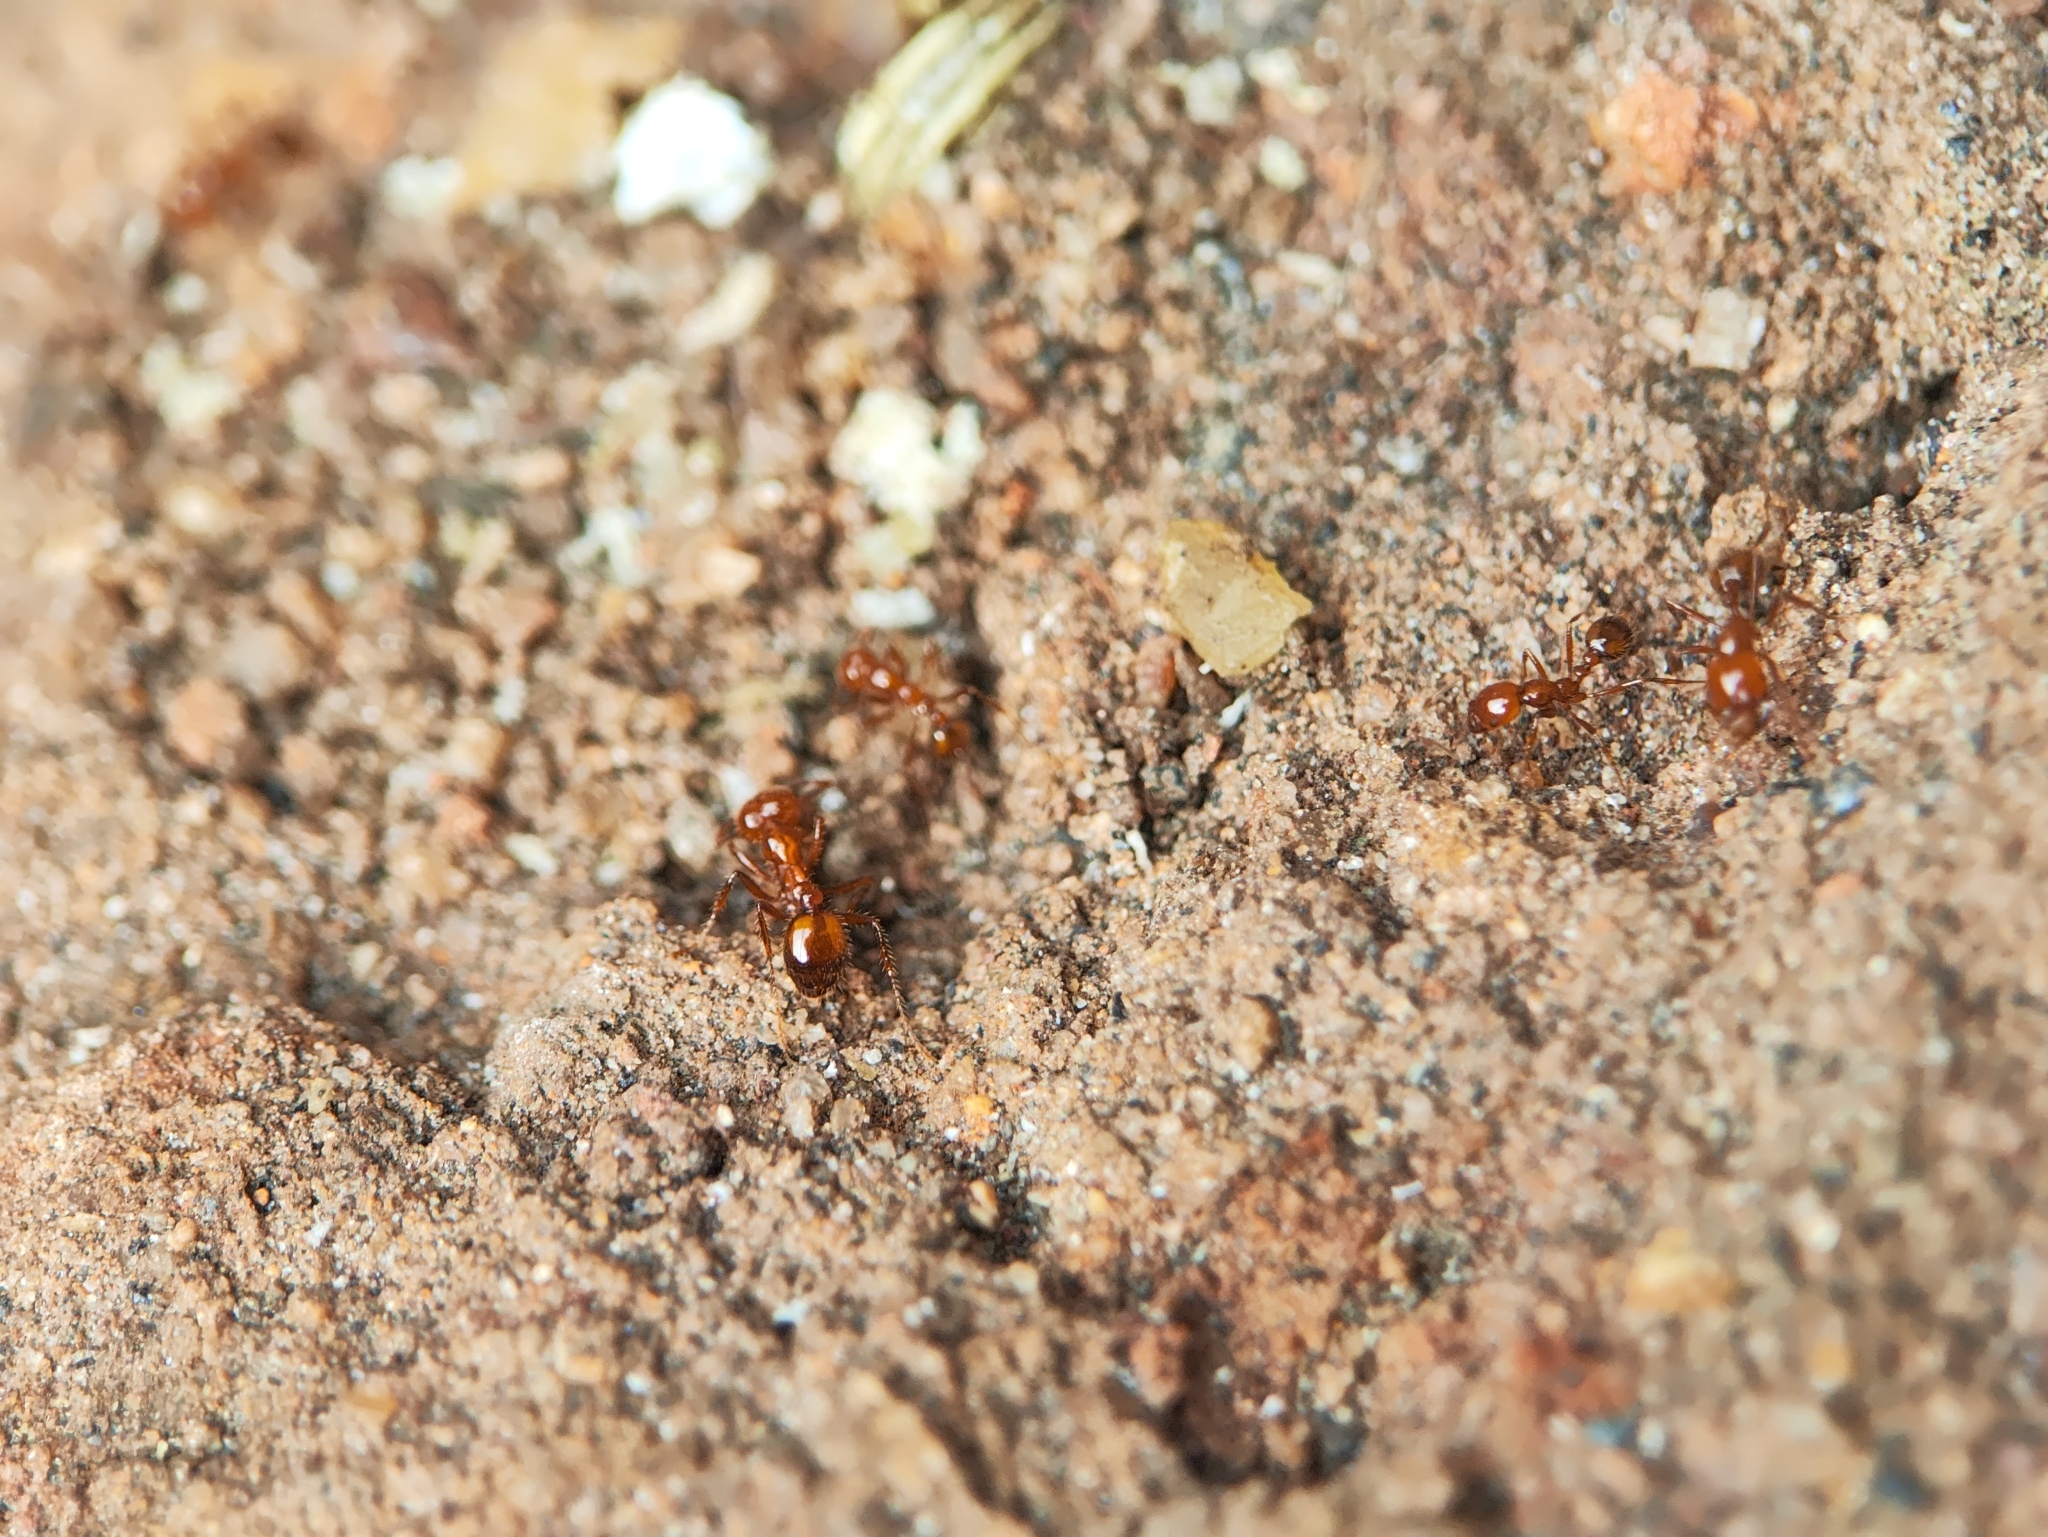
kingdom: Animalia
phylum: Arthropoda
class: Insecta
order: Hymenoptera
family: Formicidae
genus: Solenopsis
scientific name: Solenopsis geminata
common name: Tropical fire ant
